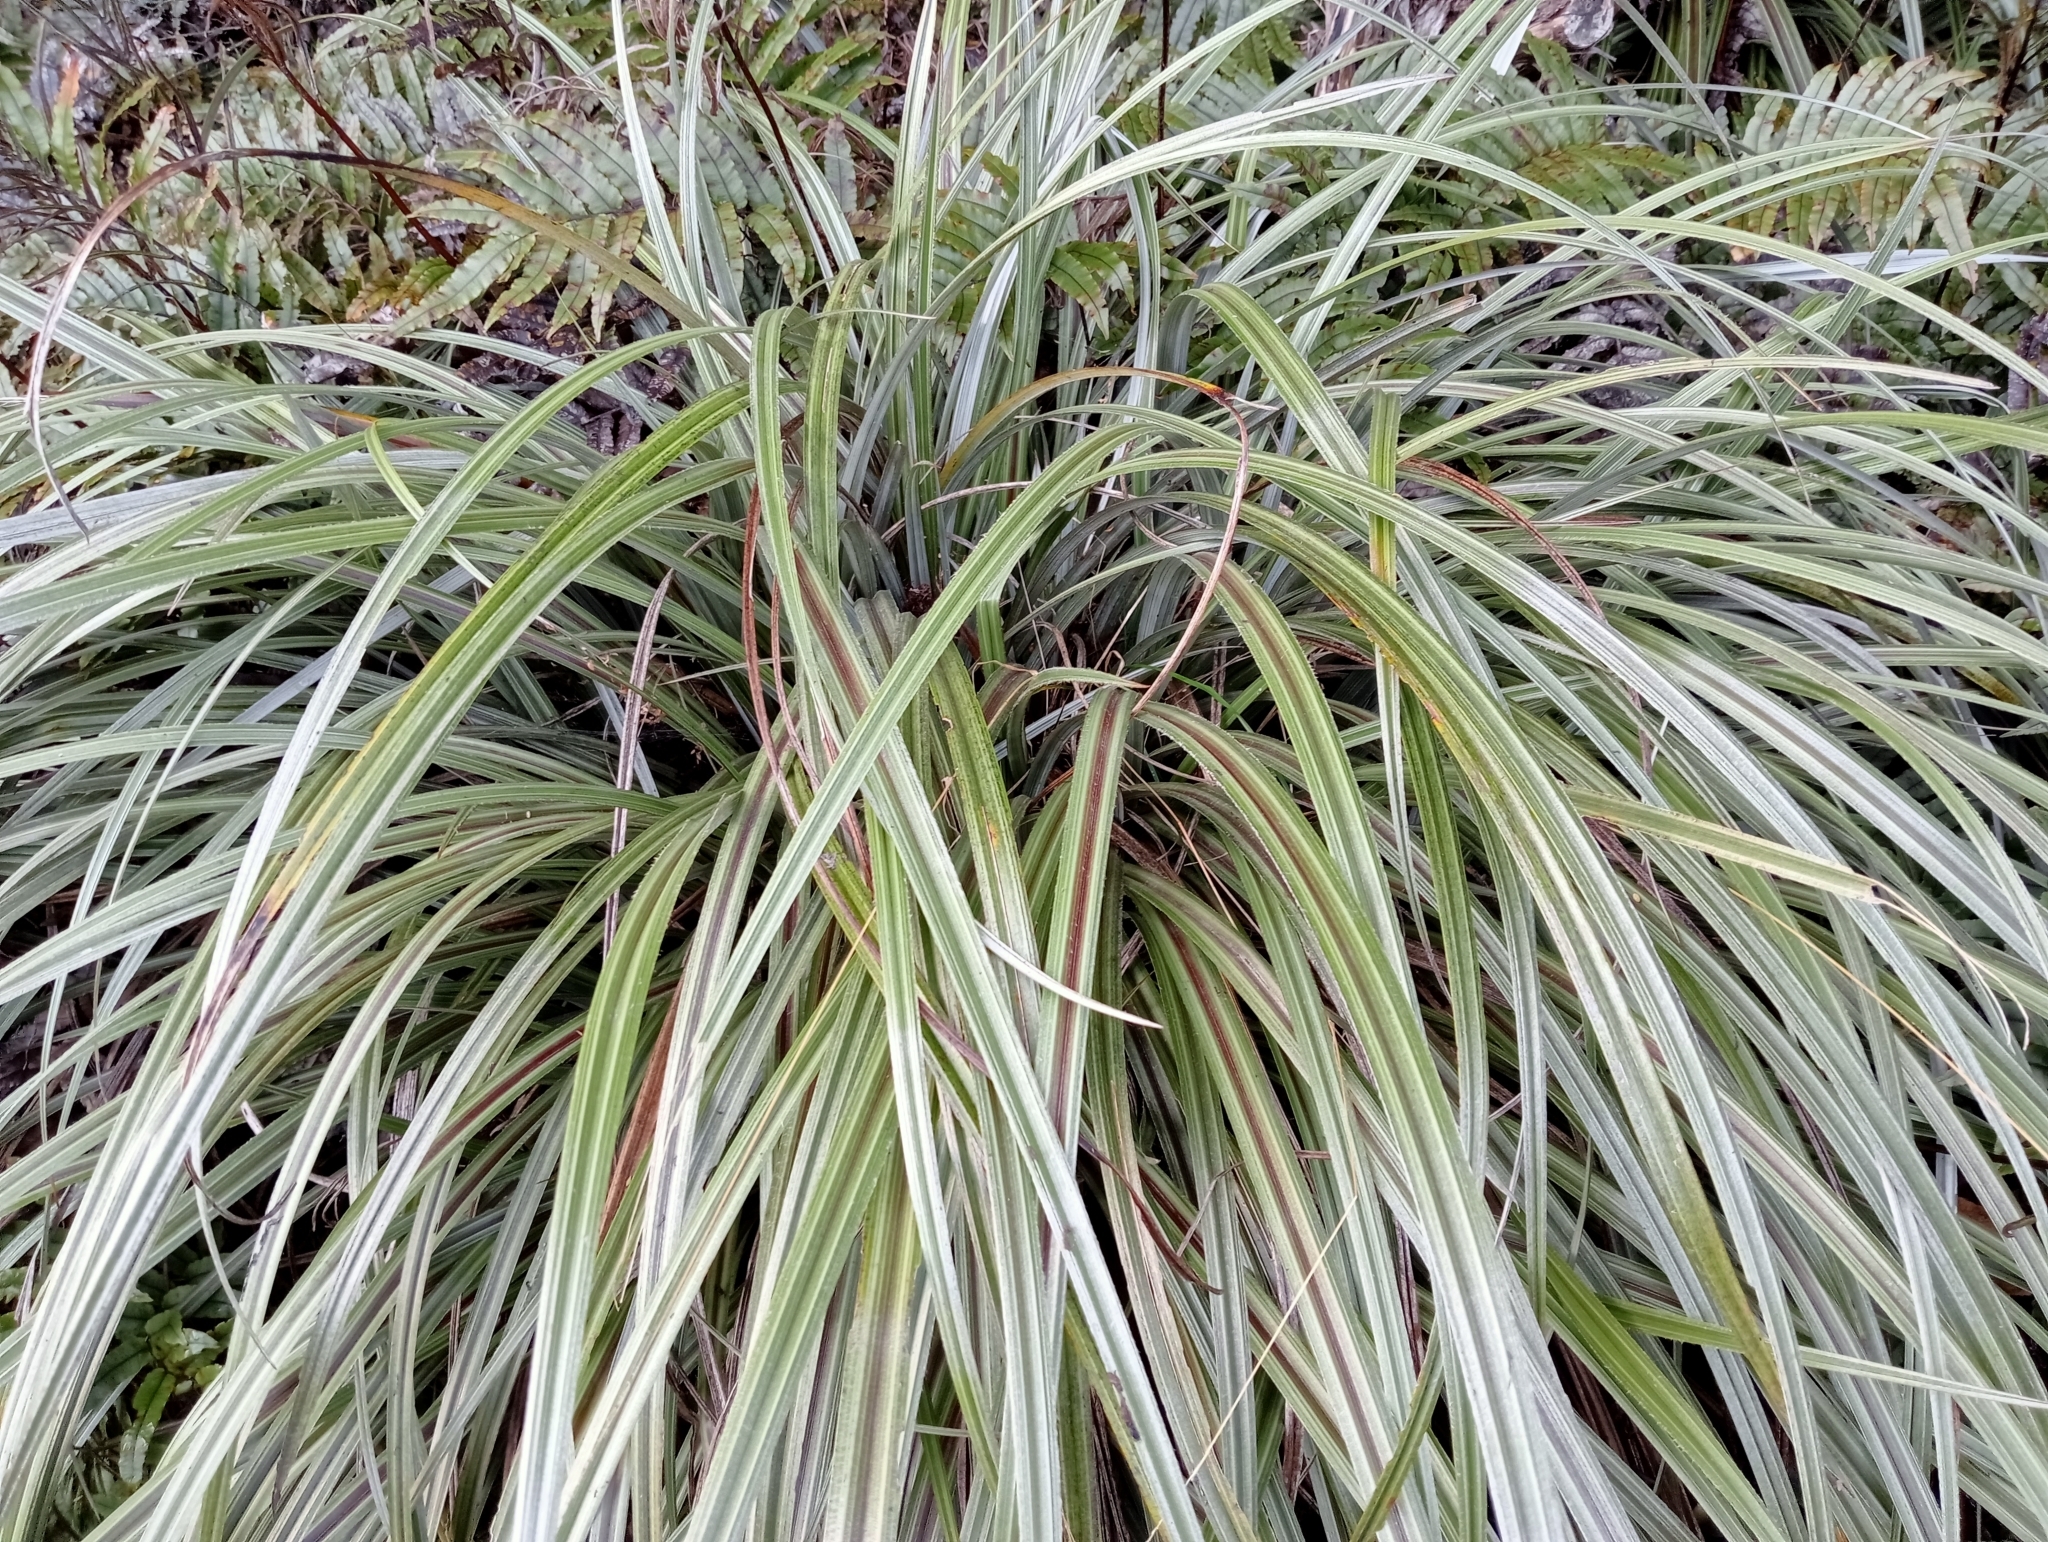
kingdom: Plantae
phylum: Tracheophyta
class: Liliopsida
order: Asparagales
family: Asteliaceae
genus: Astelia
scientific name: Astelia nervosa
